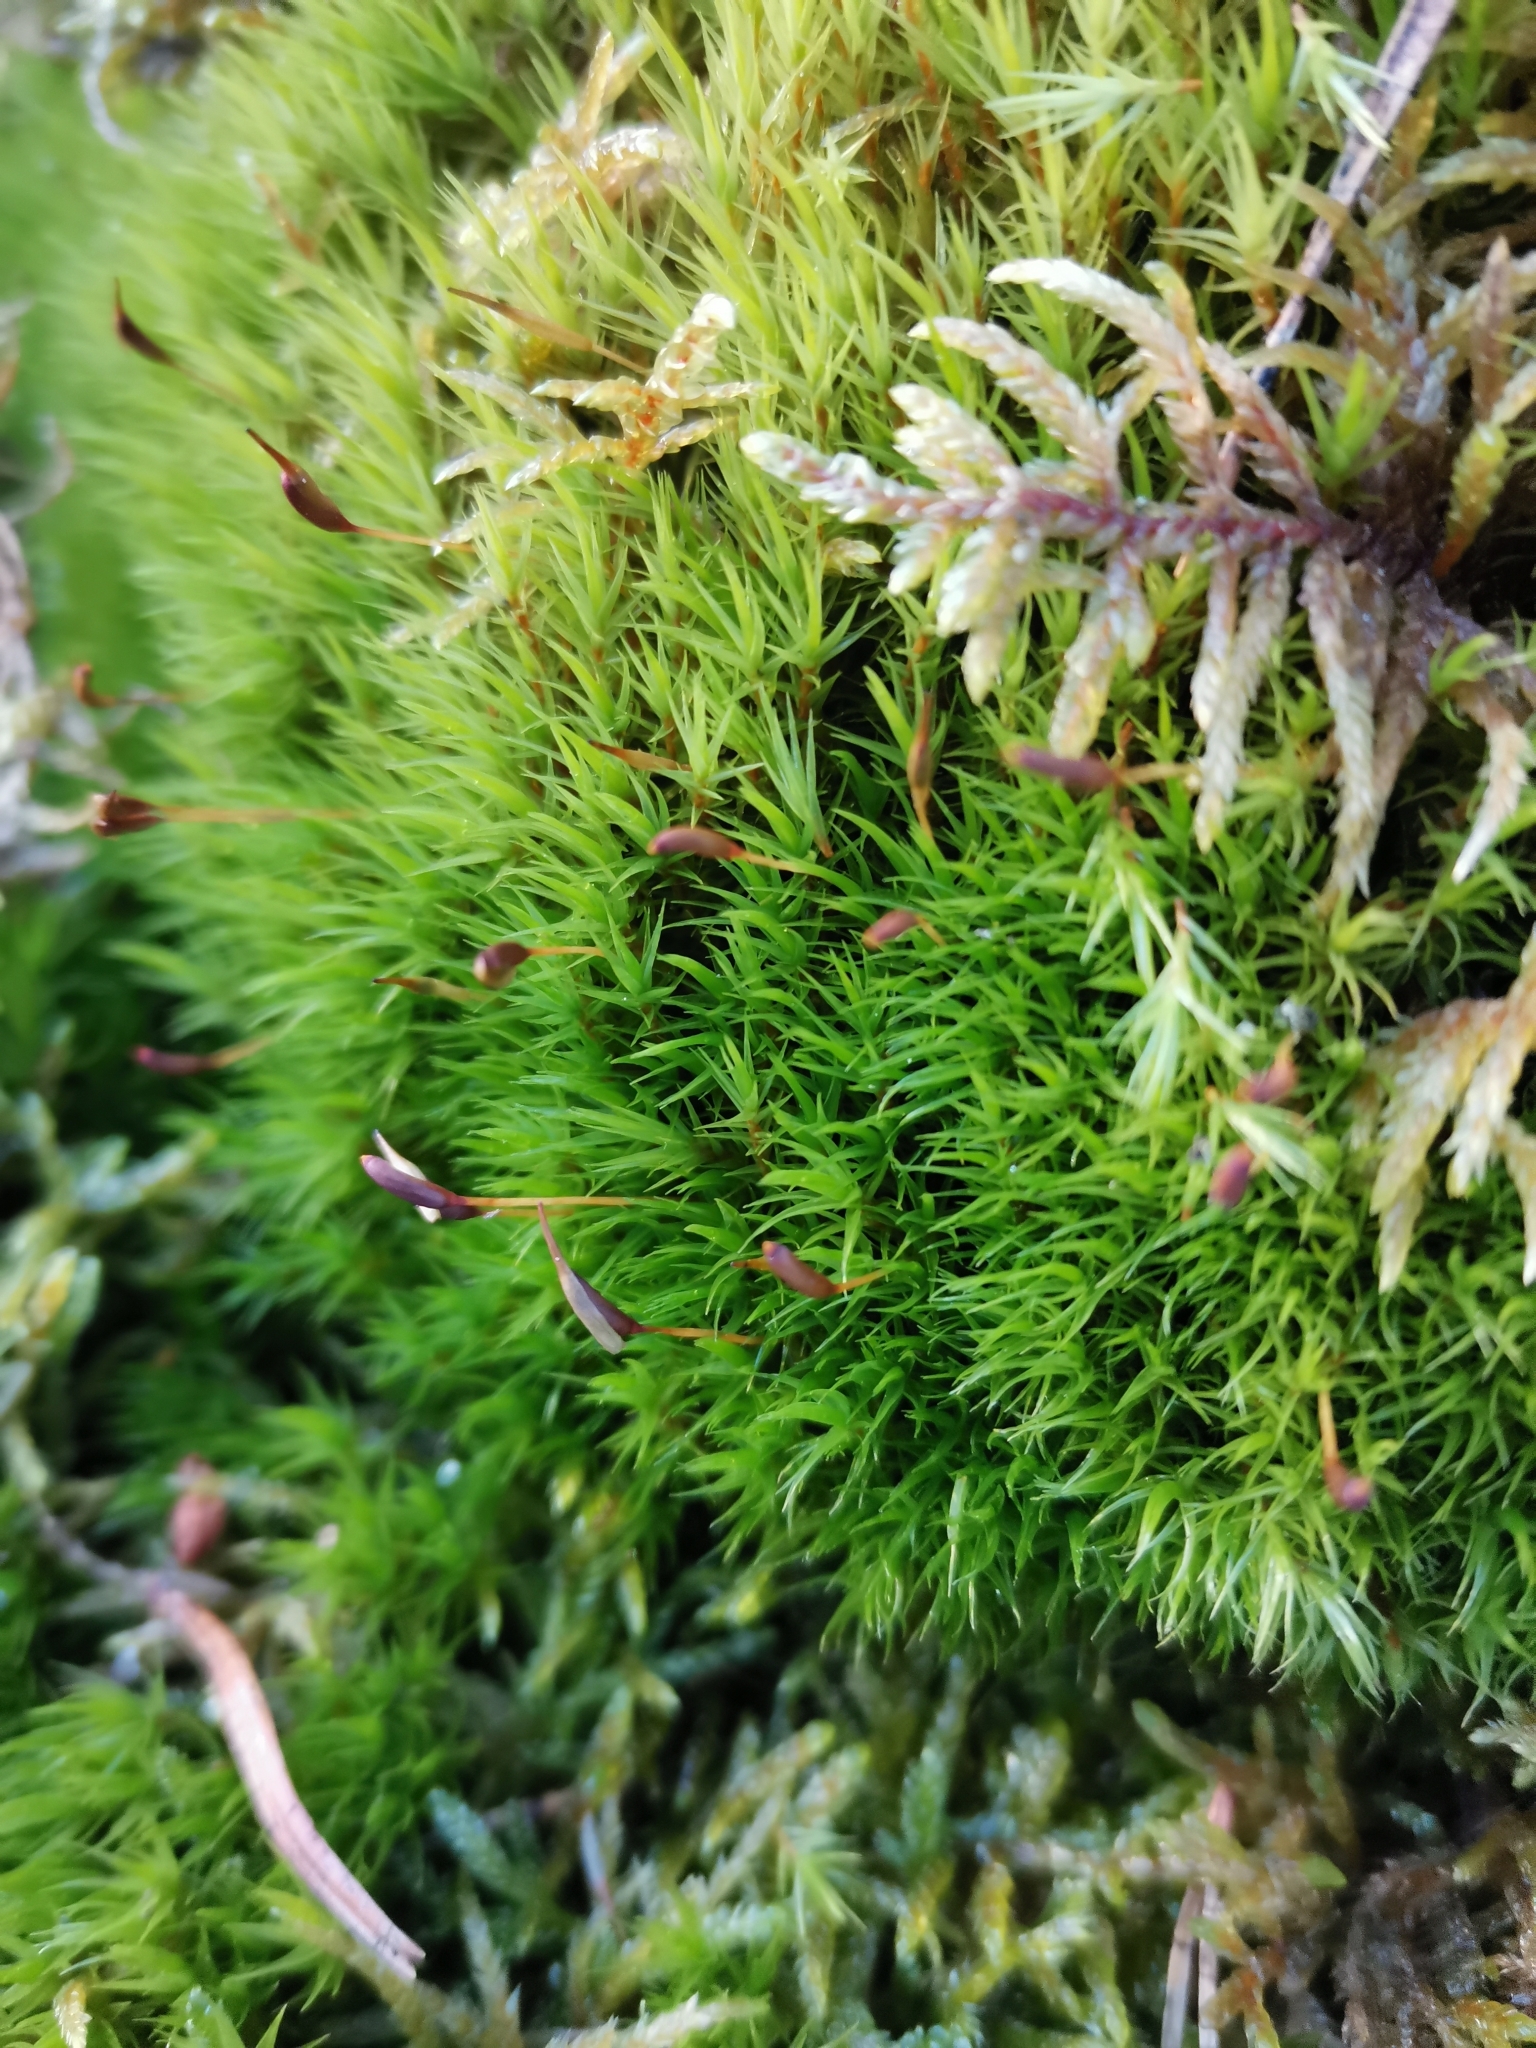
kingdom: Plantae
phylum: Bryophyta
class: Bryopsida
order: Dicranales
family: Dicranaceae
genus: Dicranum
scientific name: Dicranum scoparium
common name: Broom fork-moss
